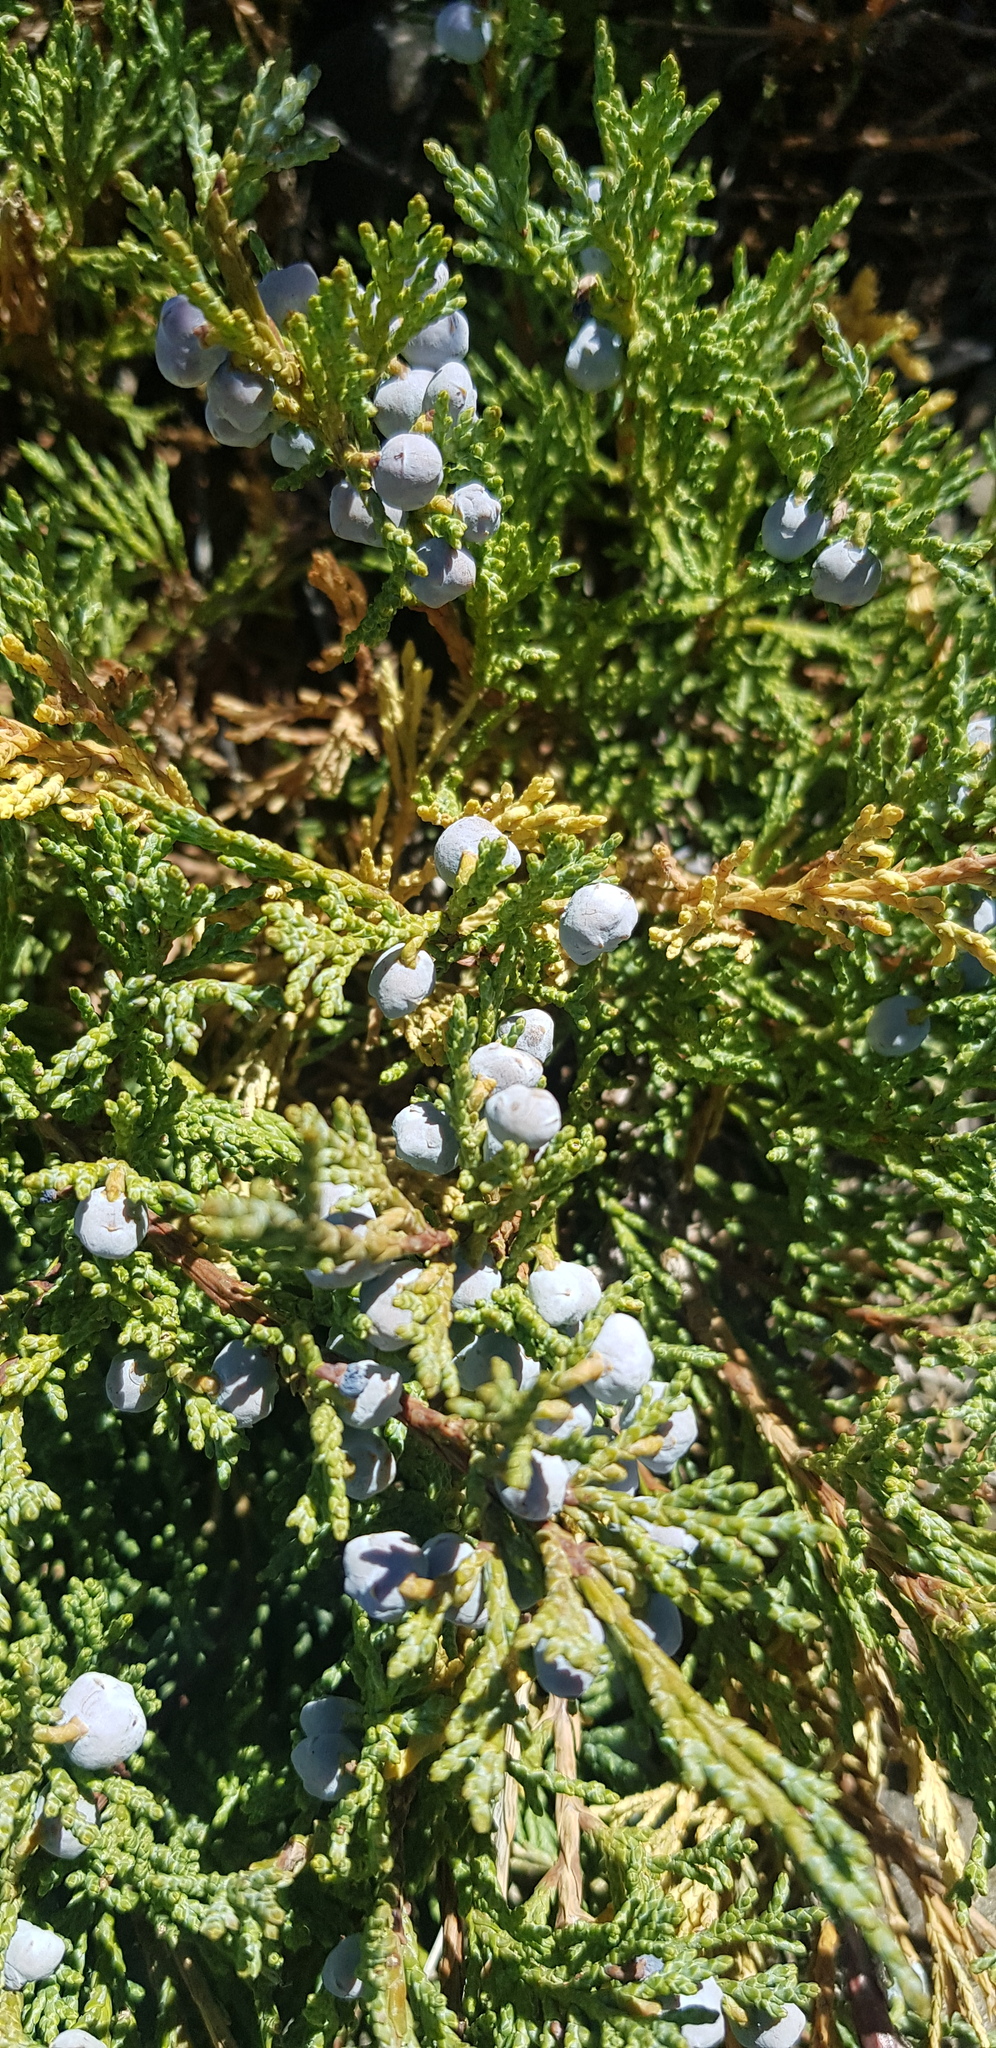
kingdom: Plantae
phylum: Tracheophyta
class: Pinopsida
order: Pinales
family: Cupressaceae
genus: Juniperus
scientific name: Juniperus sabina
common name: Savin
